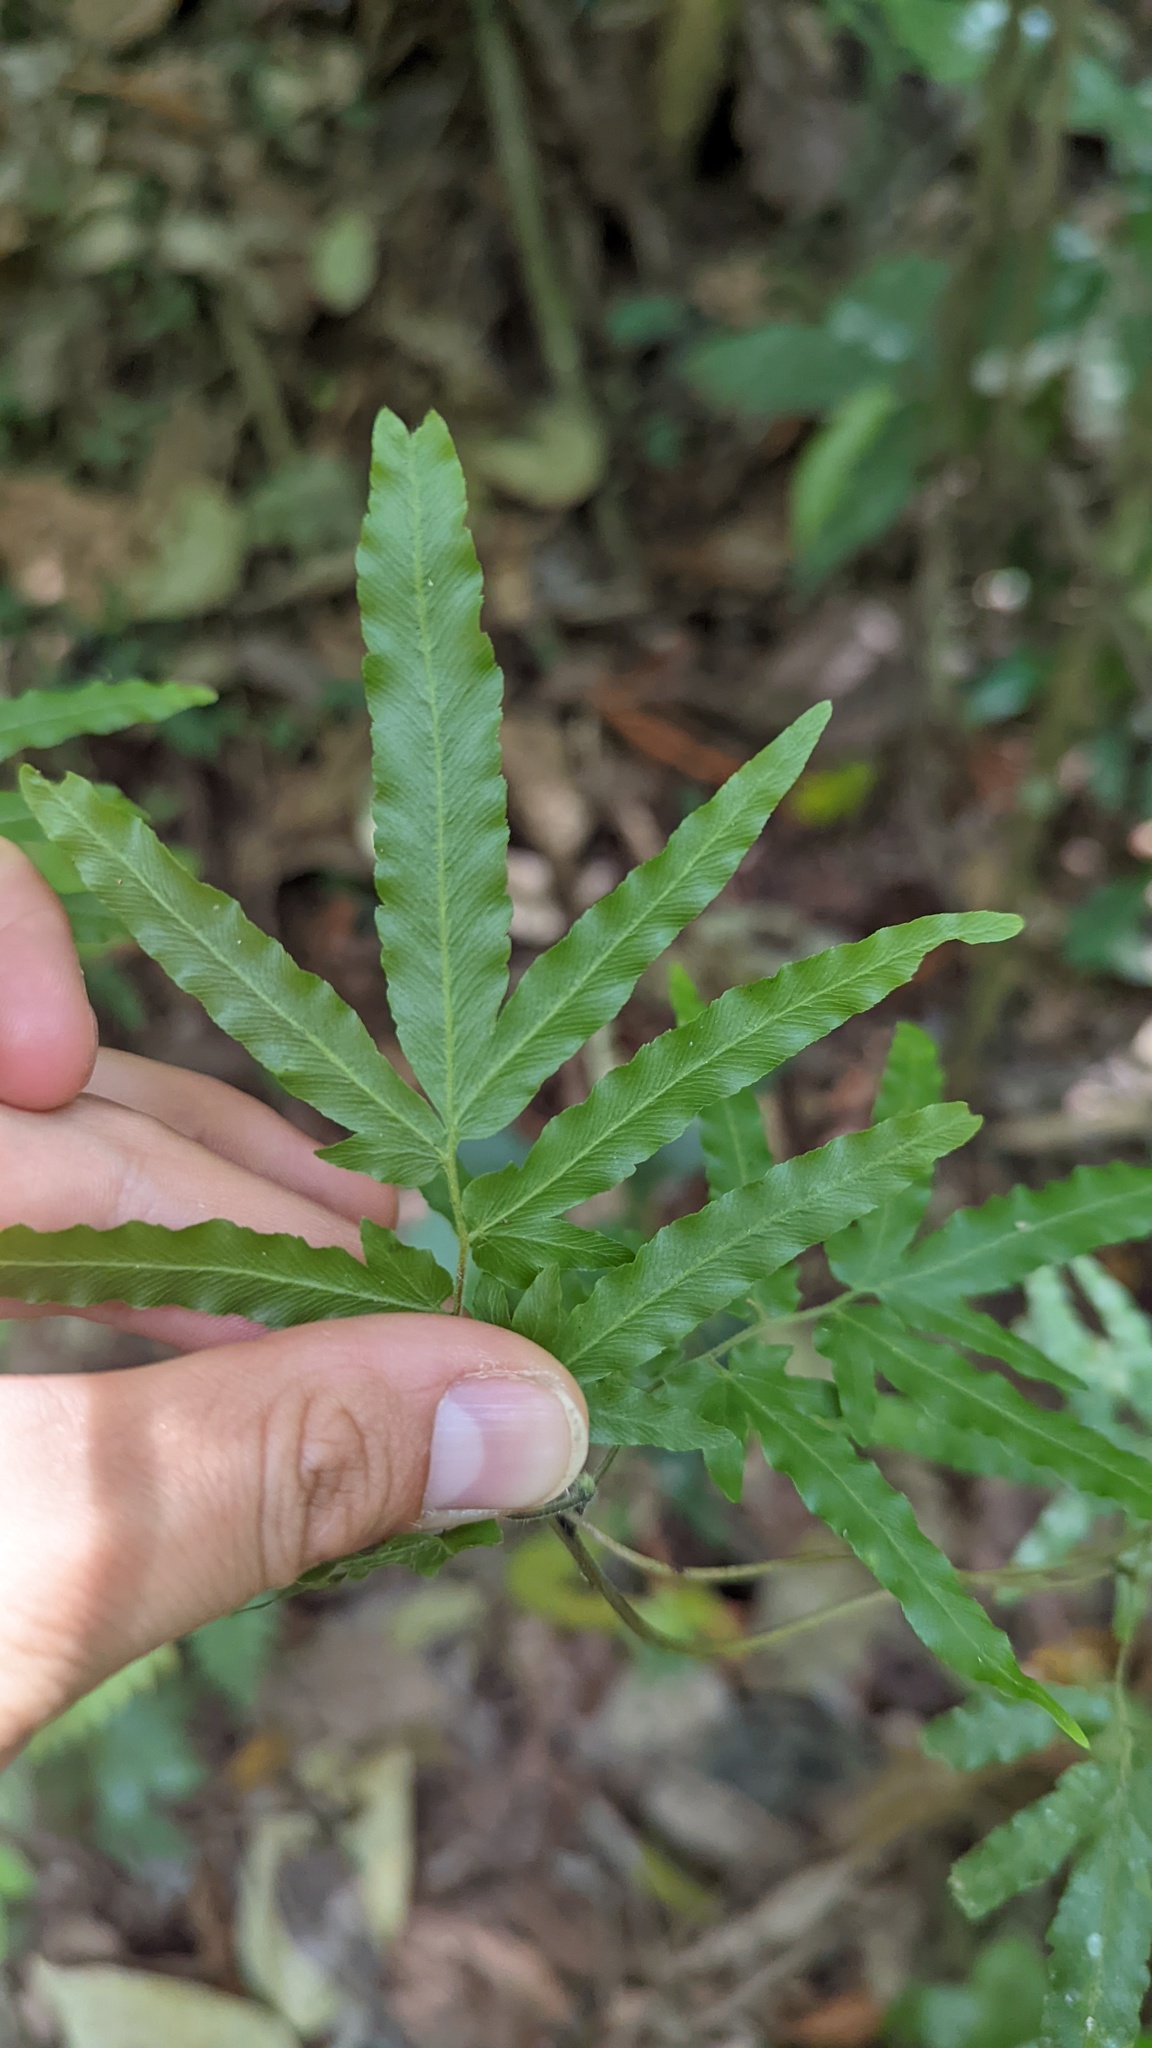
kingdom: Plantae
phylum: Tracheophyta
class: Polypodiopsida
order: Schizaeales
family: Lygodiaceae
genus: Lygodium
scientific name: Lygodium venustum
